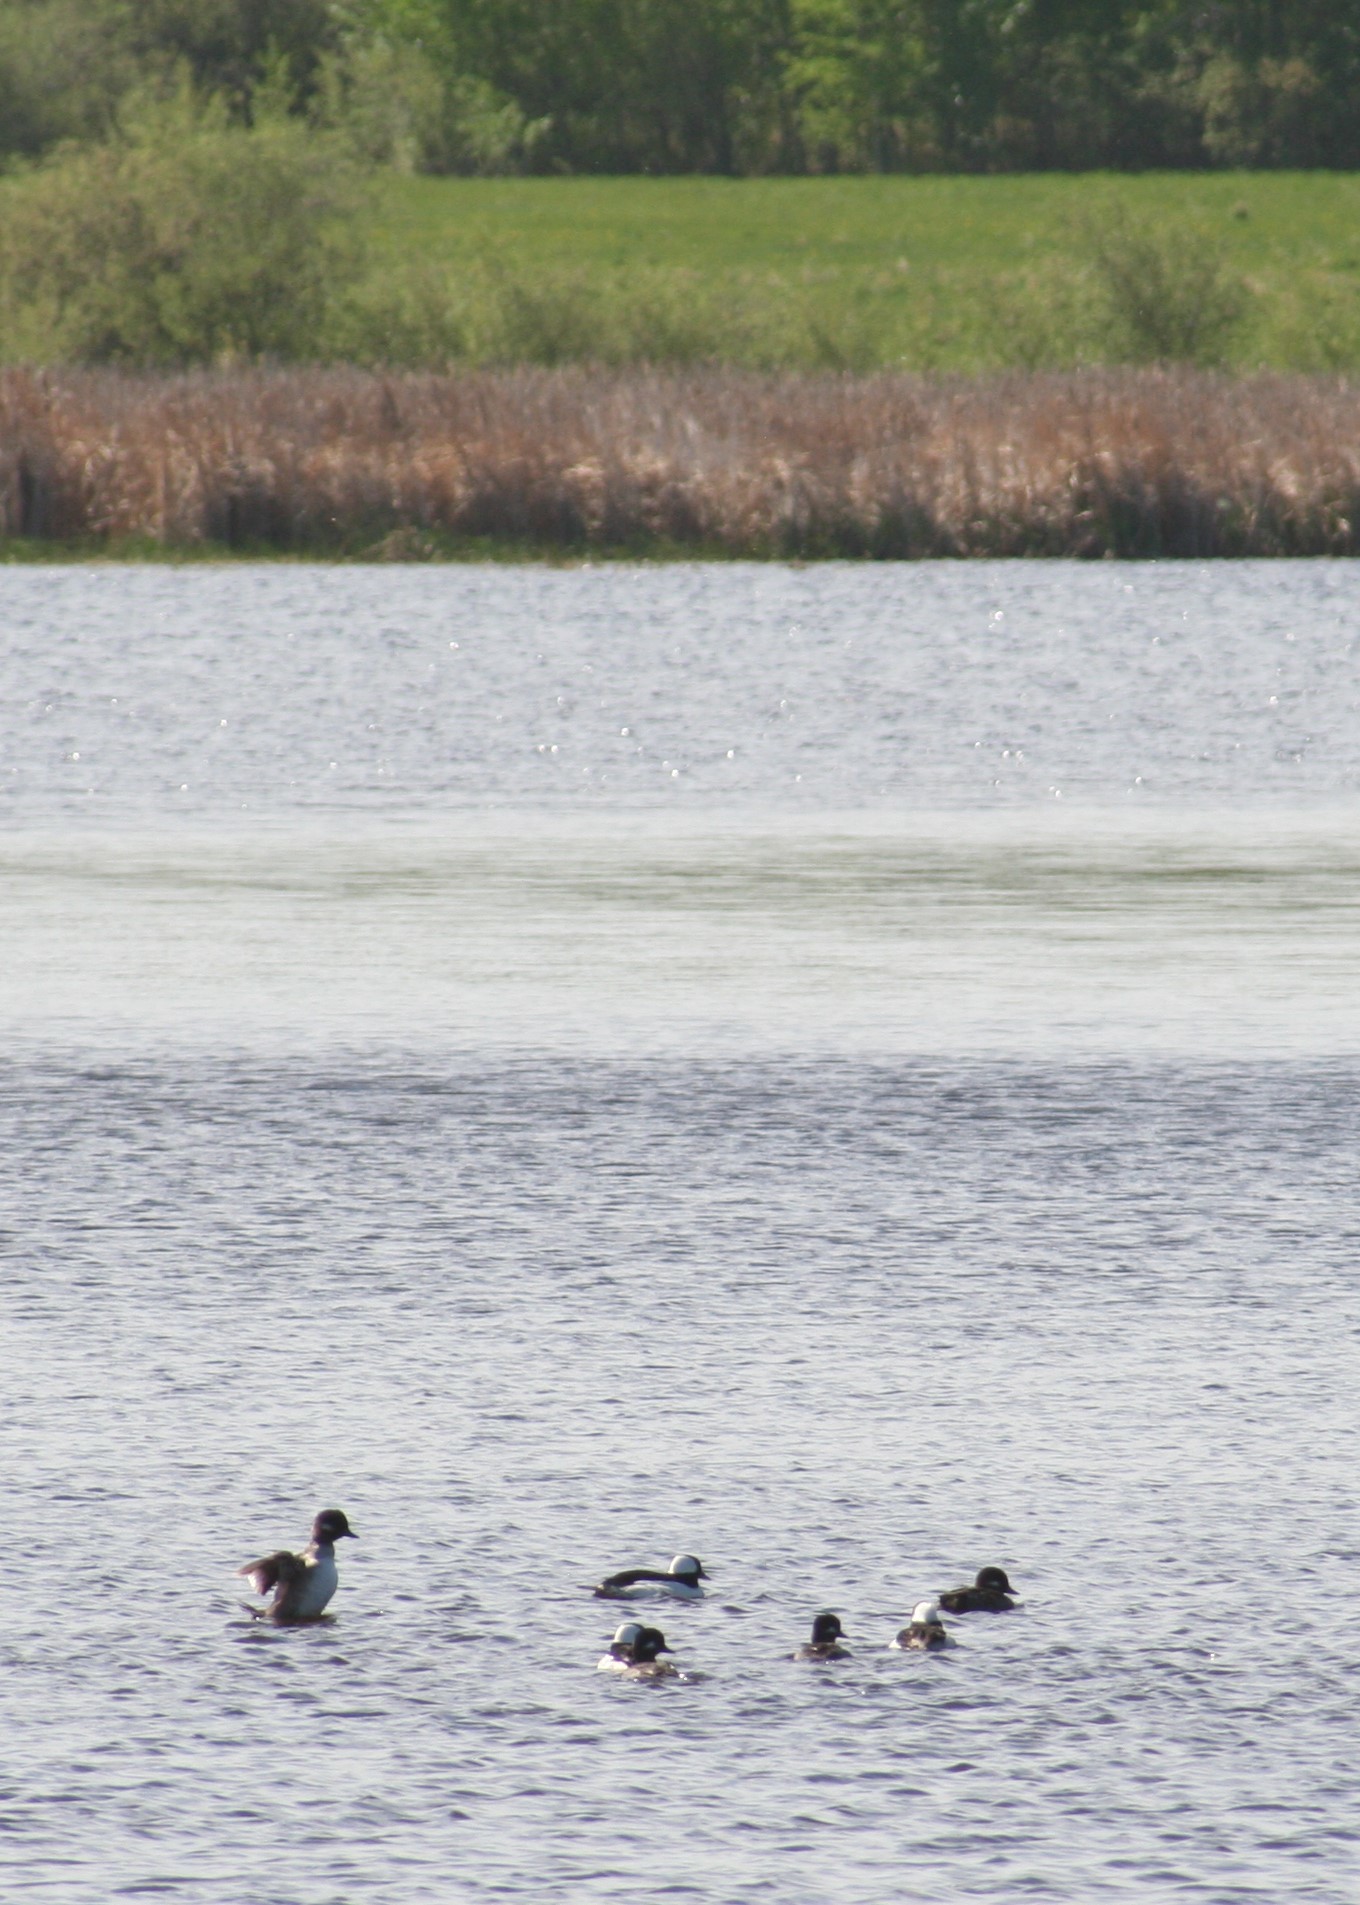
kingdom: Animalia
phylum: Chordata
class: Aves
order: Anseriformes
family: Anatidae
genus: Bucephala
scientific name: Bucephala albeola
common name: Bufflehead
